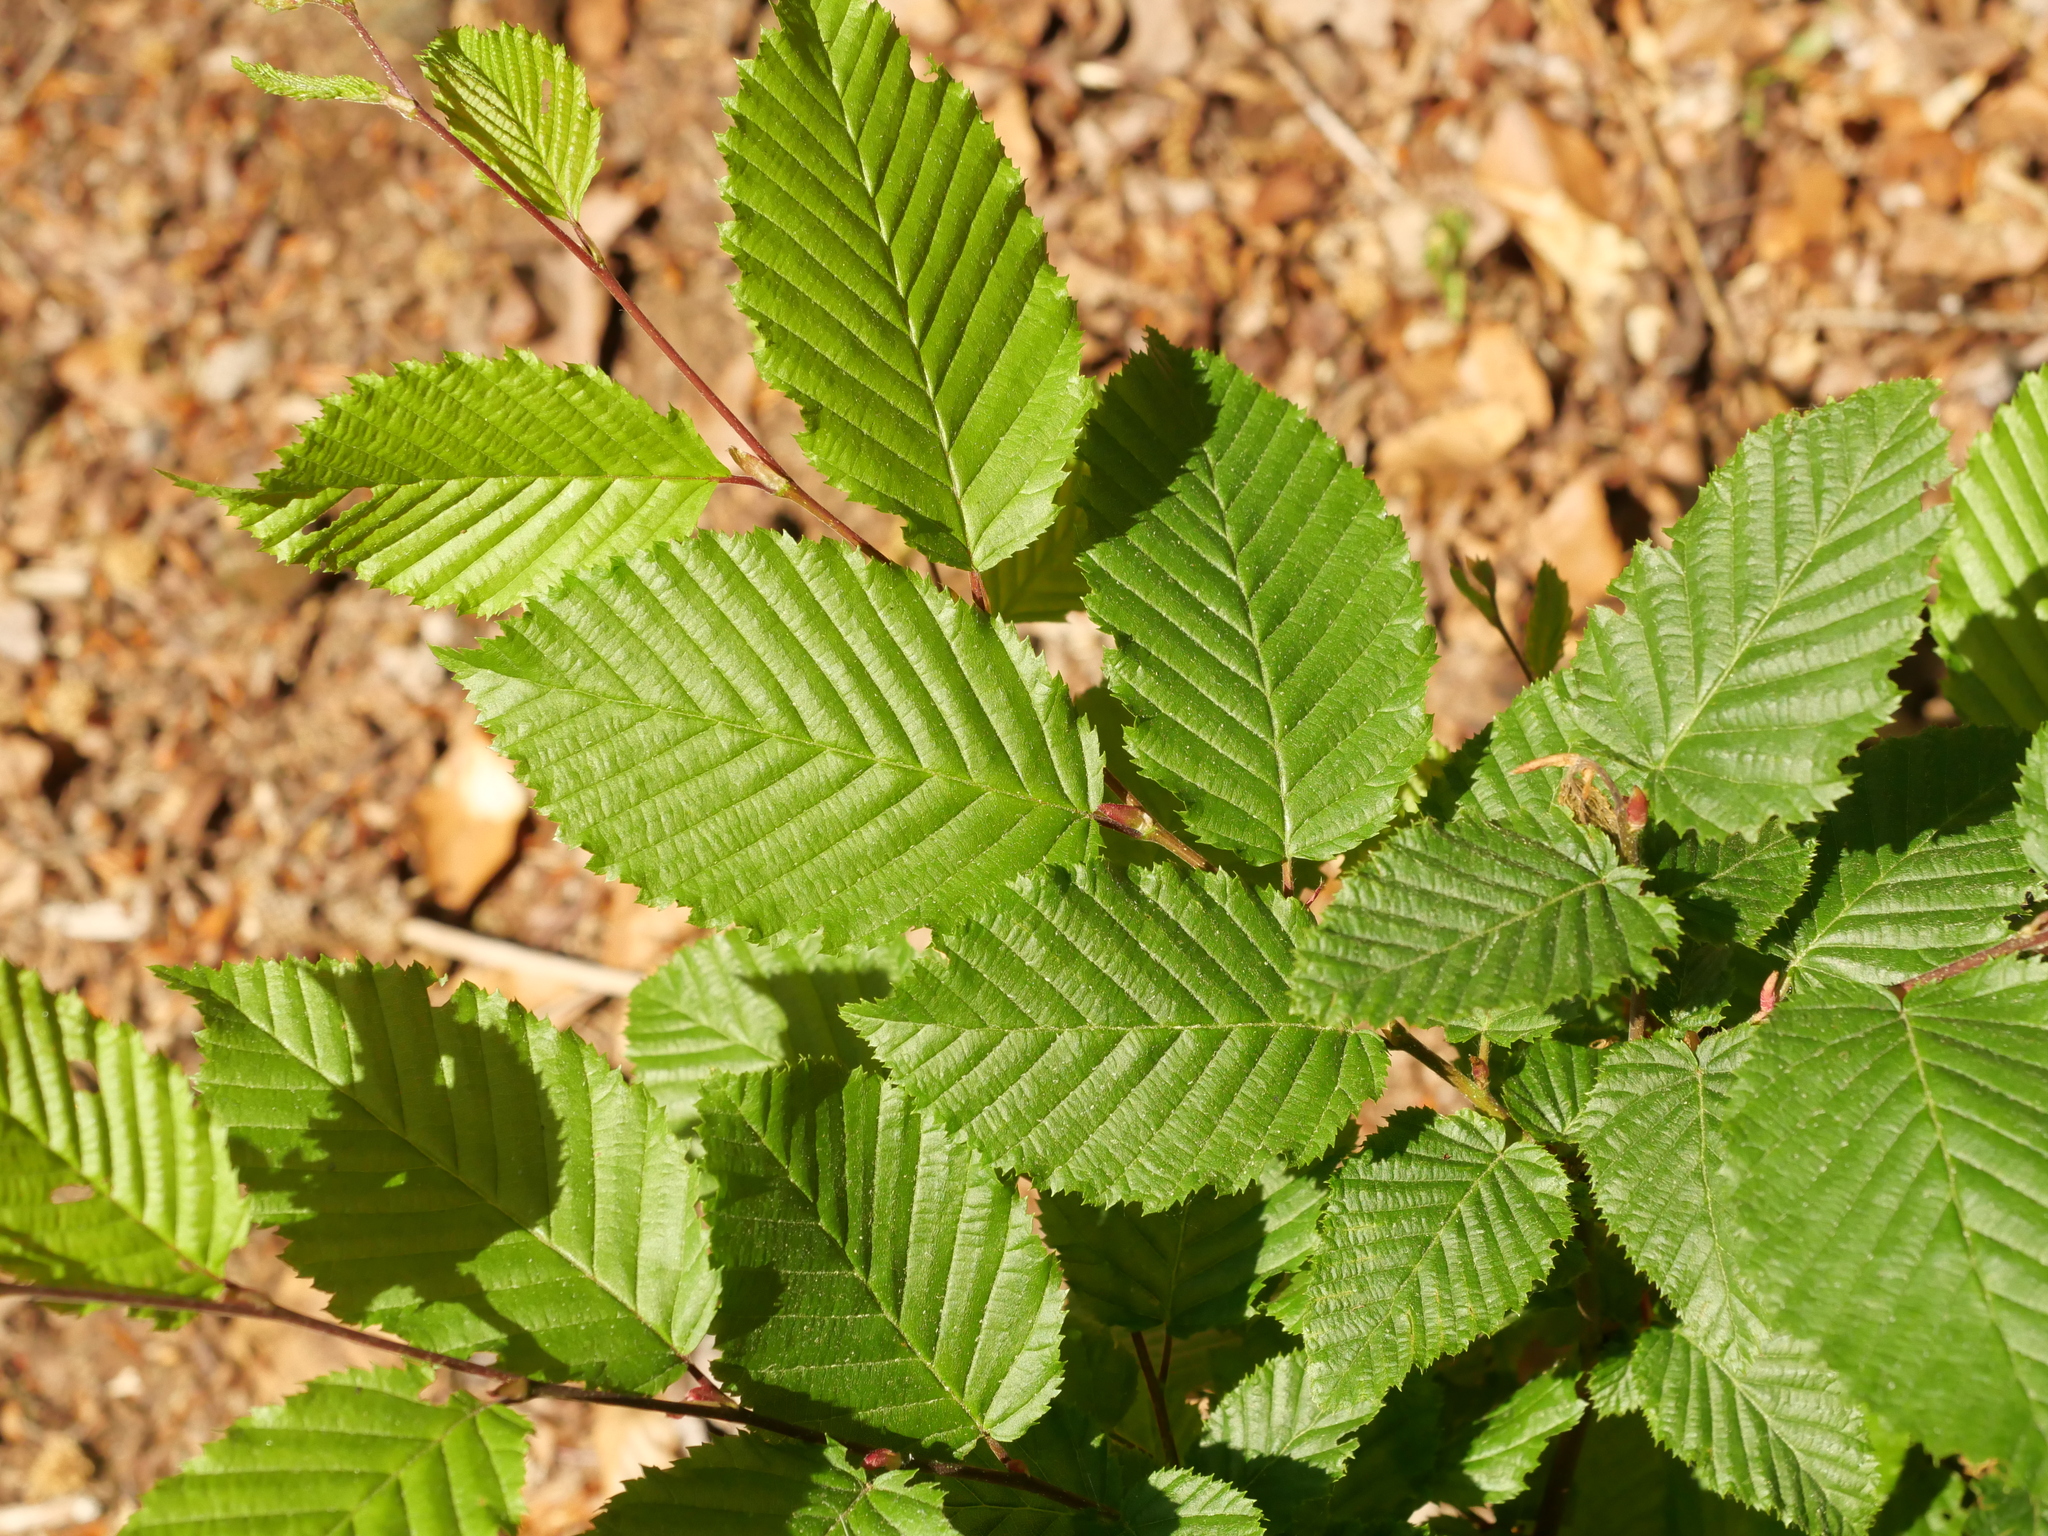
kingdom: Plantae
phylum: Tracheophyta
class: Magnoliopsida
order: Fagales
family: Betulaceae
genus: Carpinus
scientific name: Carpinus betulus
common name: Hornbeam
